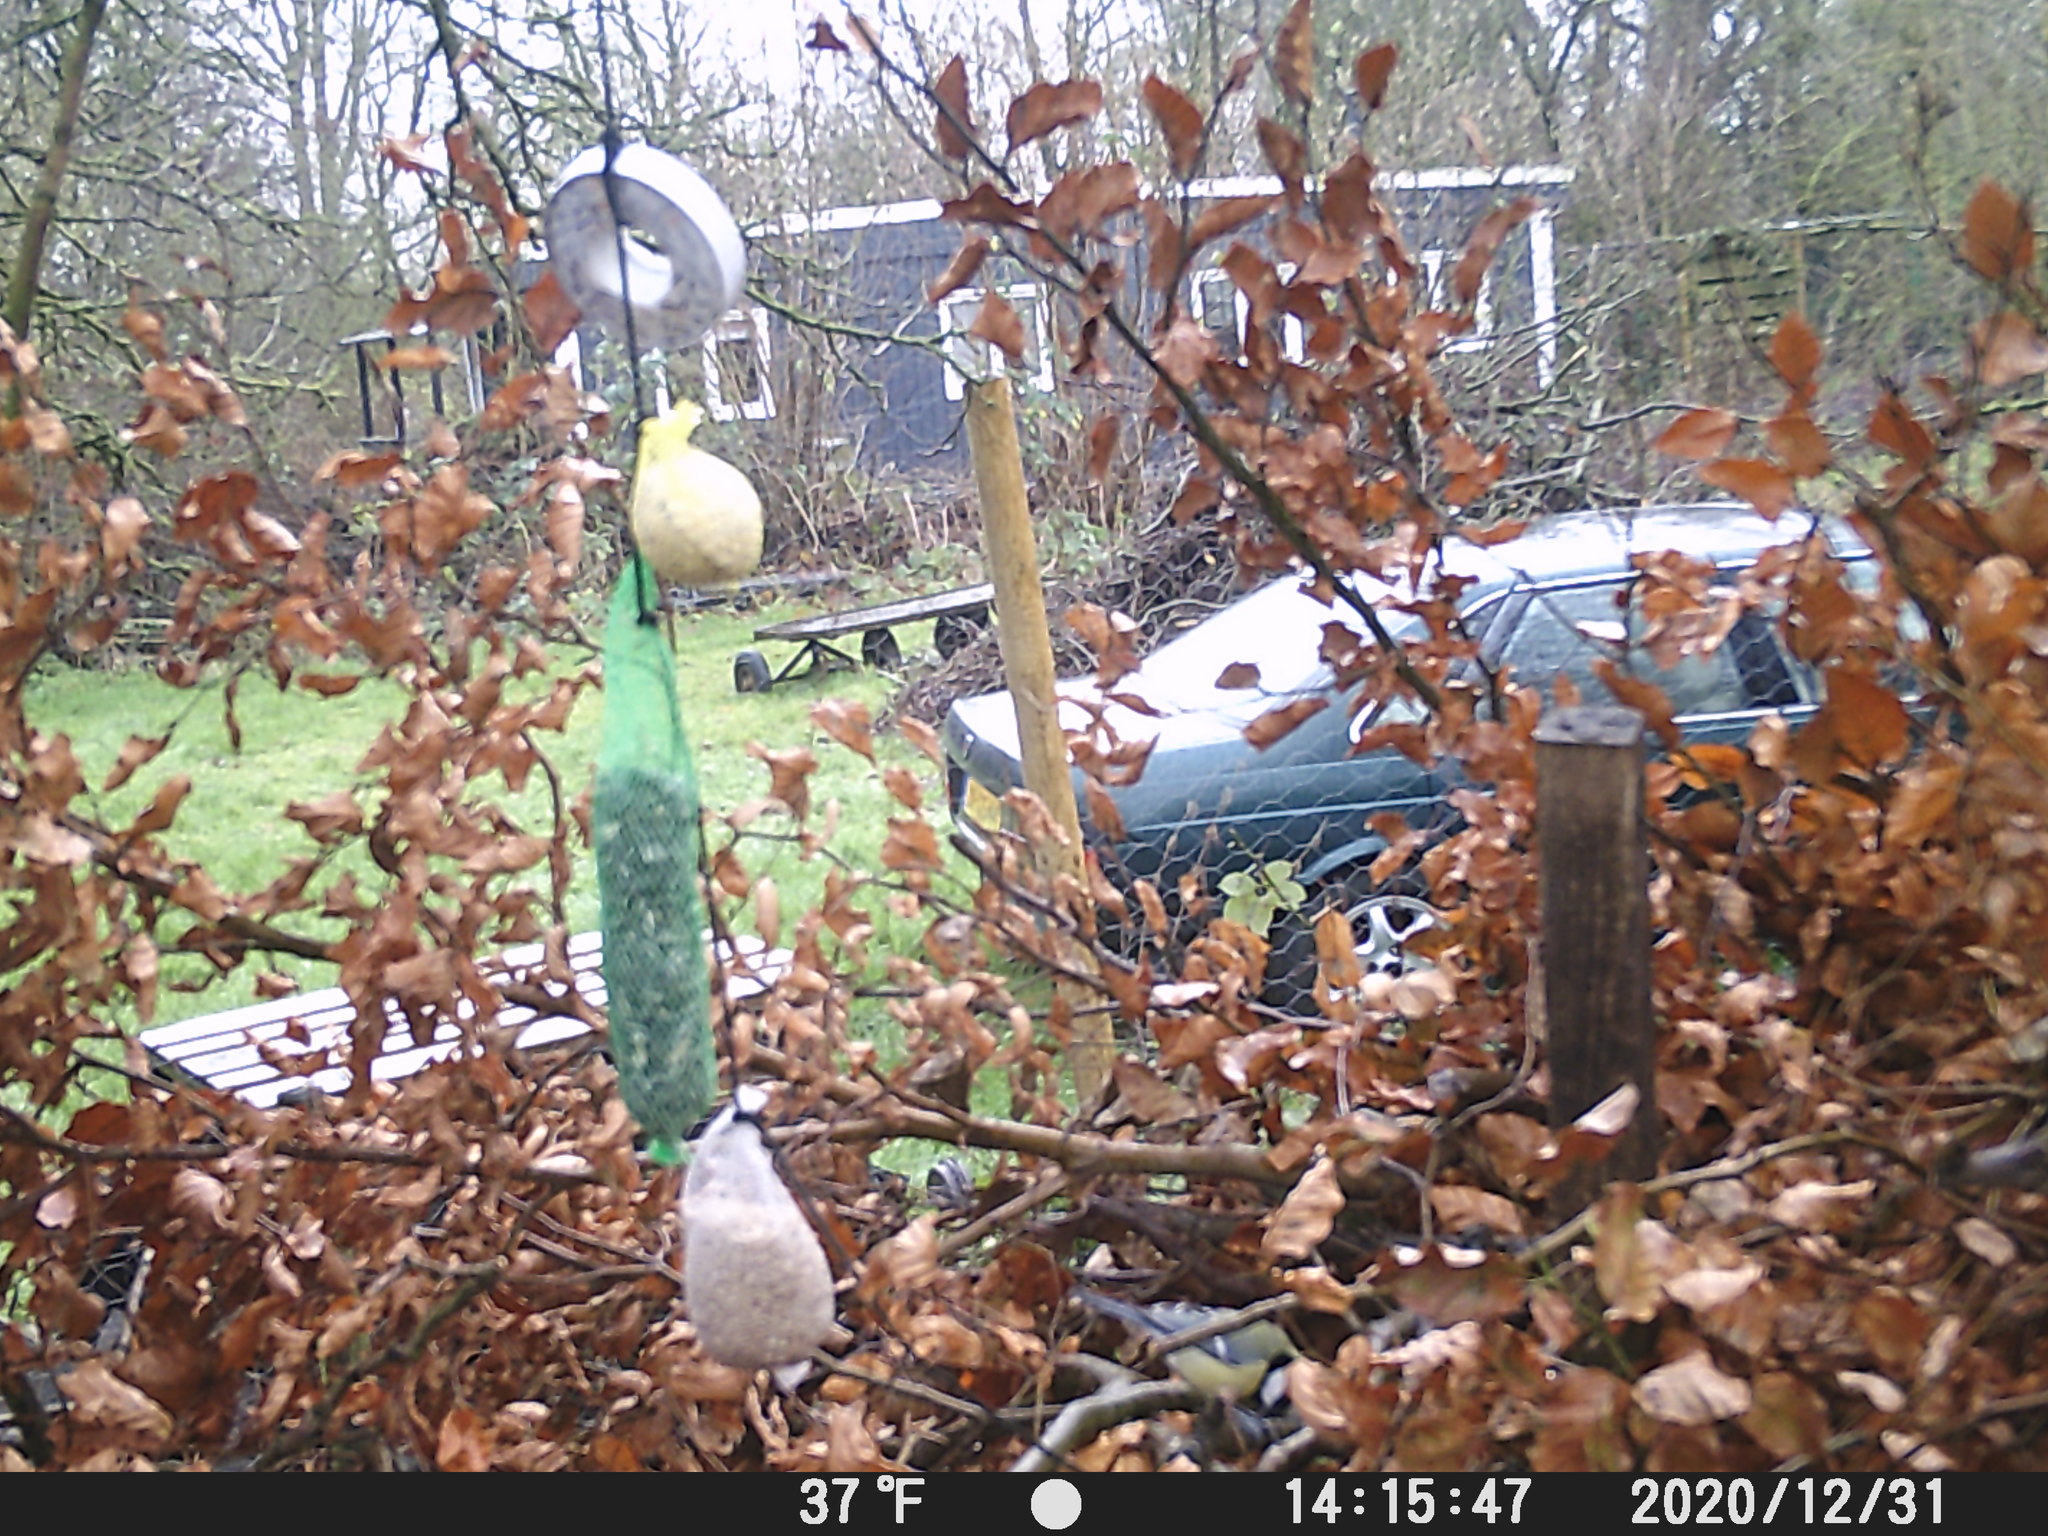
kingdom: Animalia
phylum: Chordata
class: Aves
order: Passeriformes
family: Paridae
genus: Parus
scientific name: Parus major
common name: Great tit
